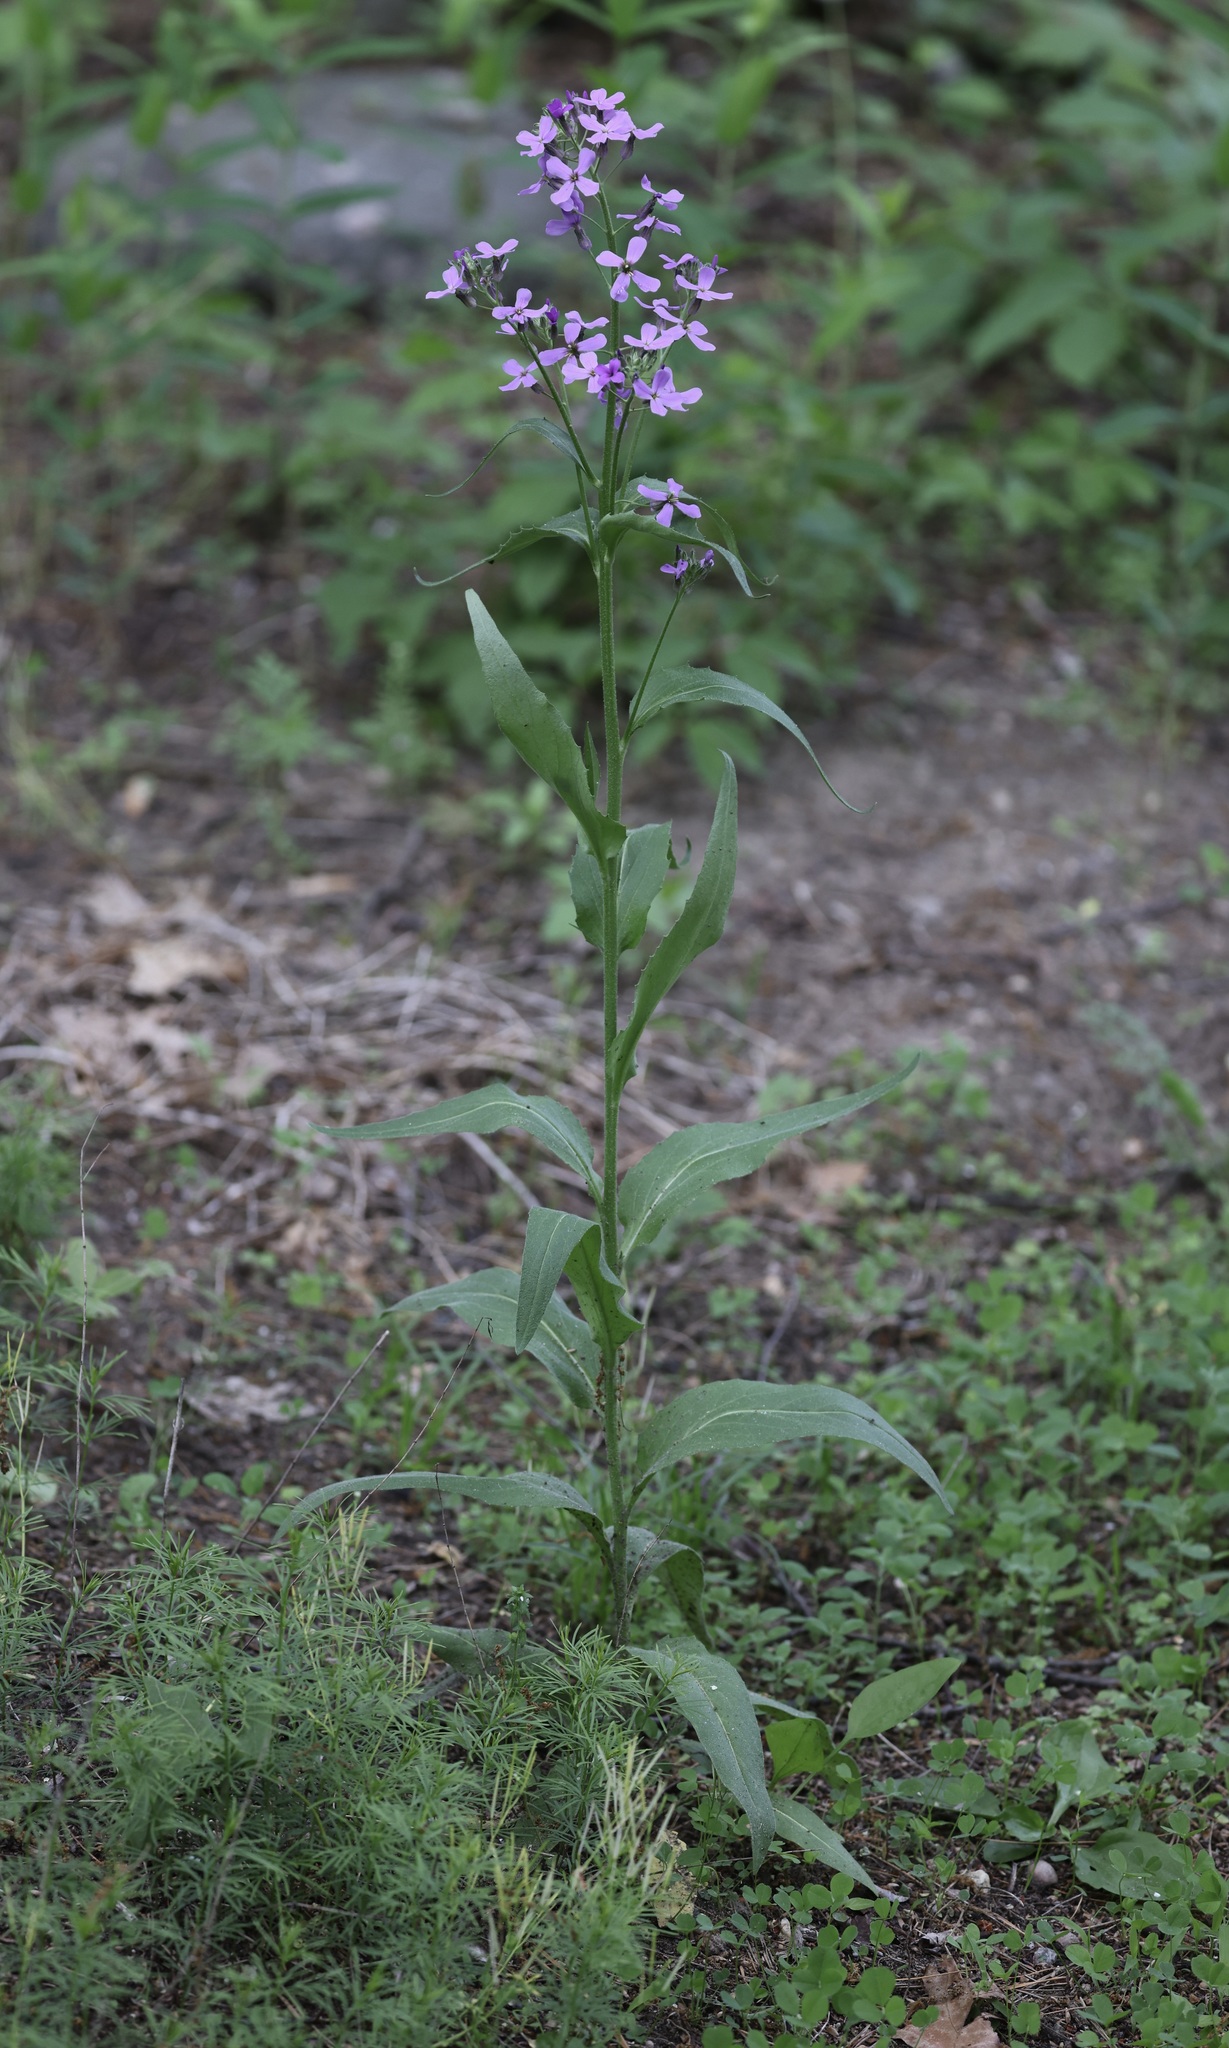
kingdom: Plantae
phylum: Tracheophyta
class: Magnoliopsida
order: Brassicales
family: Brassicaceae
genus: Hesperis
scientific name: Hesperis matronalis
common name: Dame's-violet
